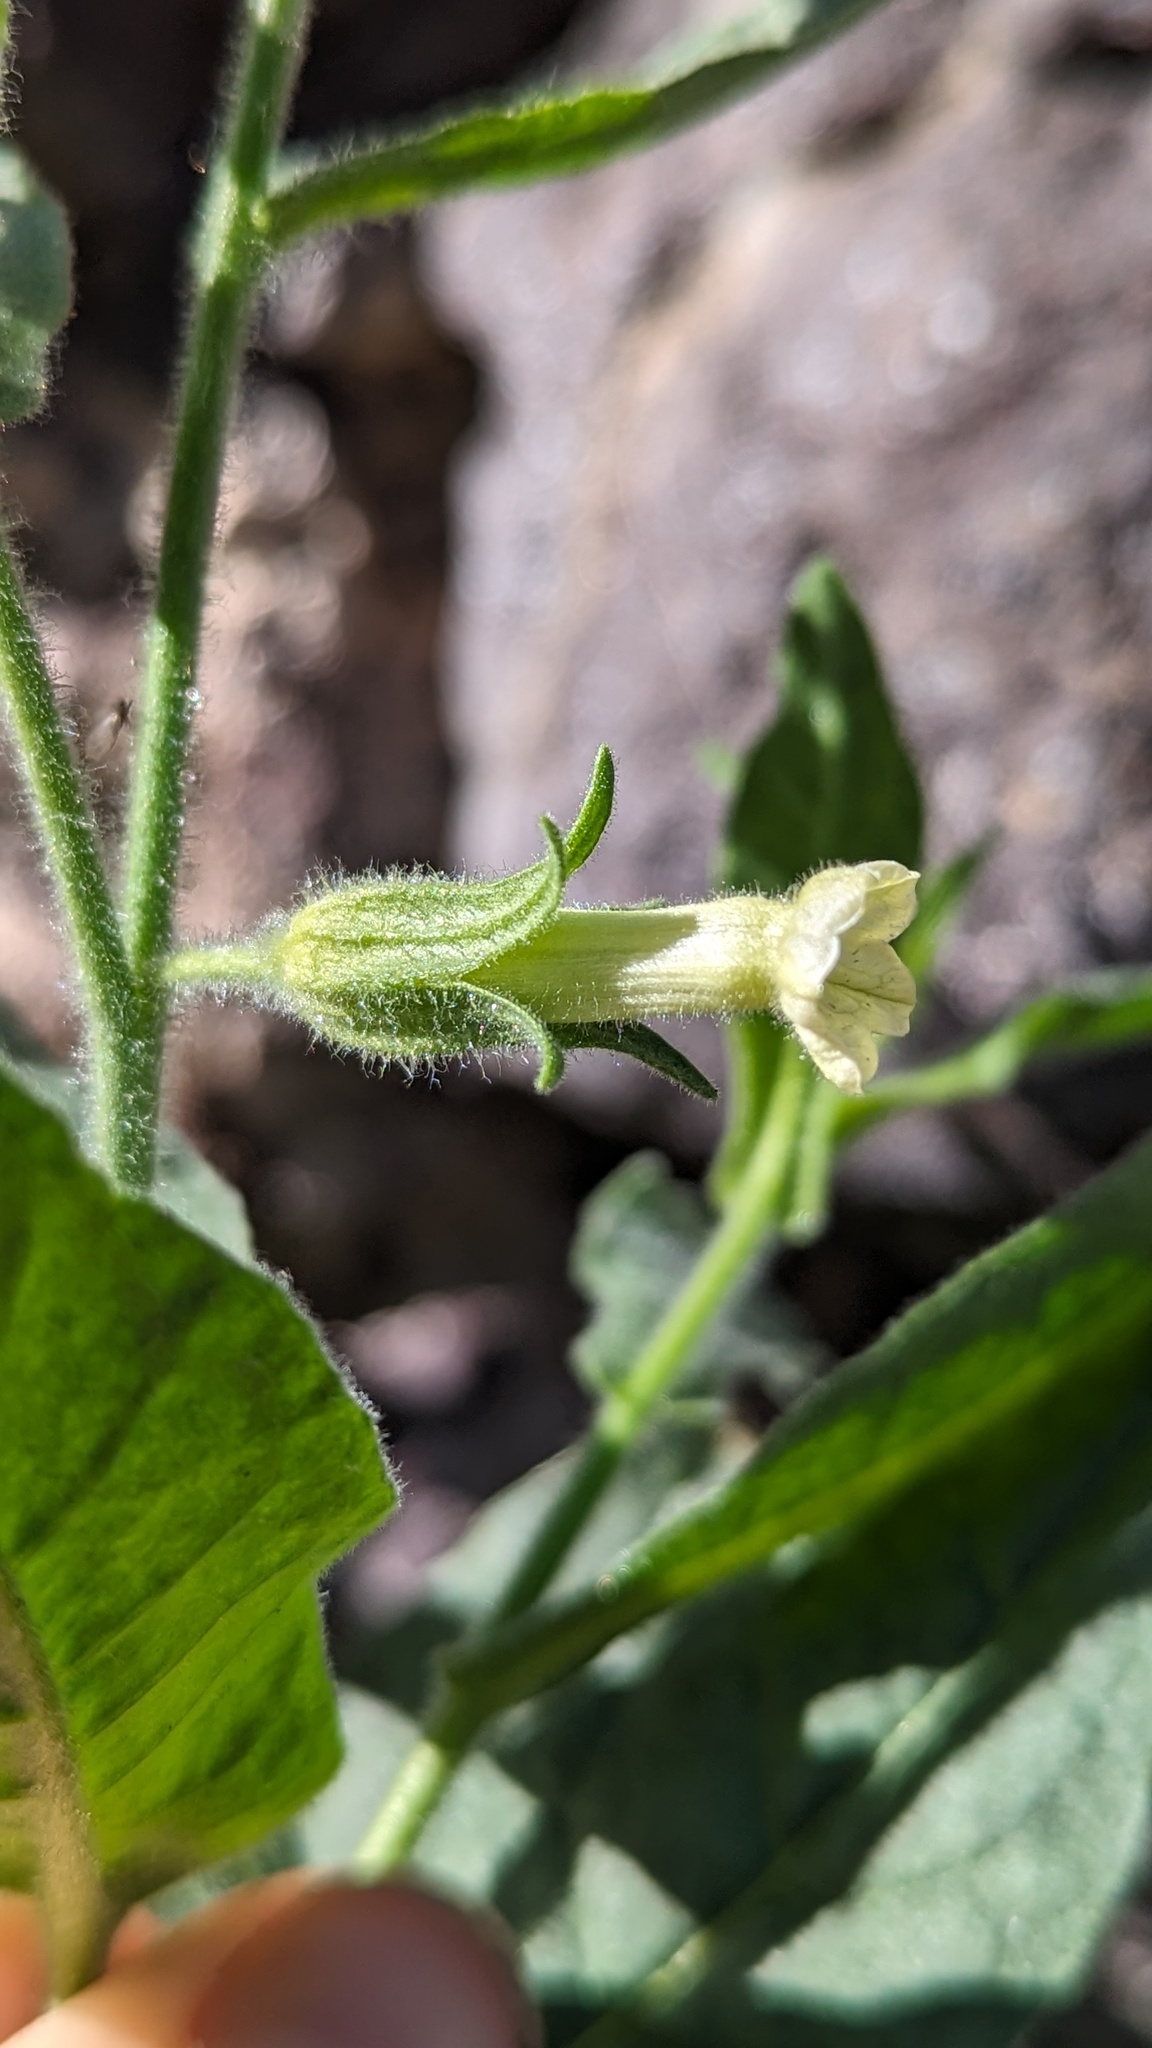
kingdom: Plantae
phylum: Tracheophyta
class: Magnoliopsida
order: Solanales
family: Solanaceae
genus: Nicotiana
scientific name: Nicotiana obtusifolia
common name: Desert tobacco
